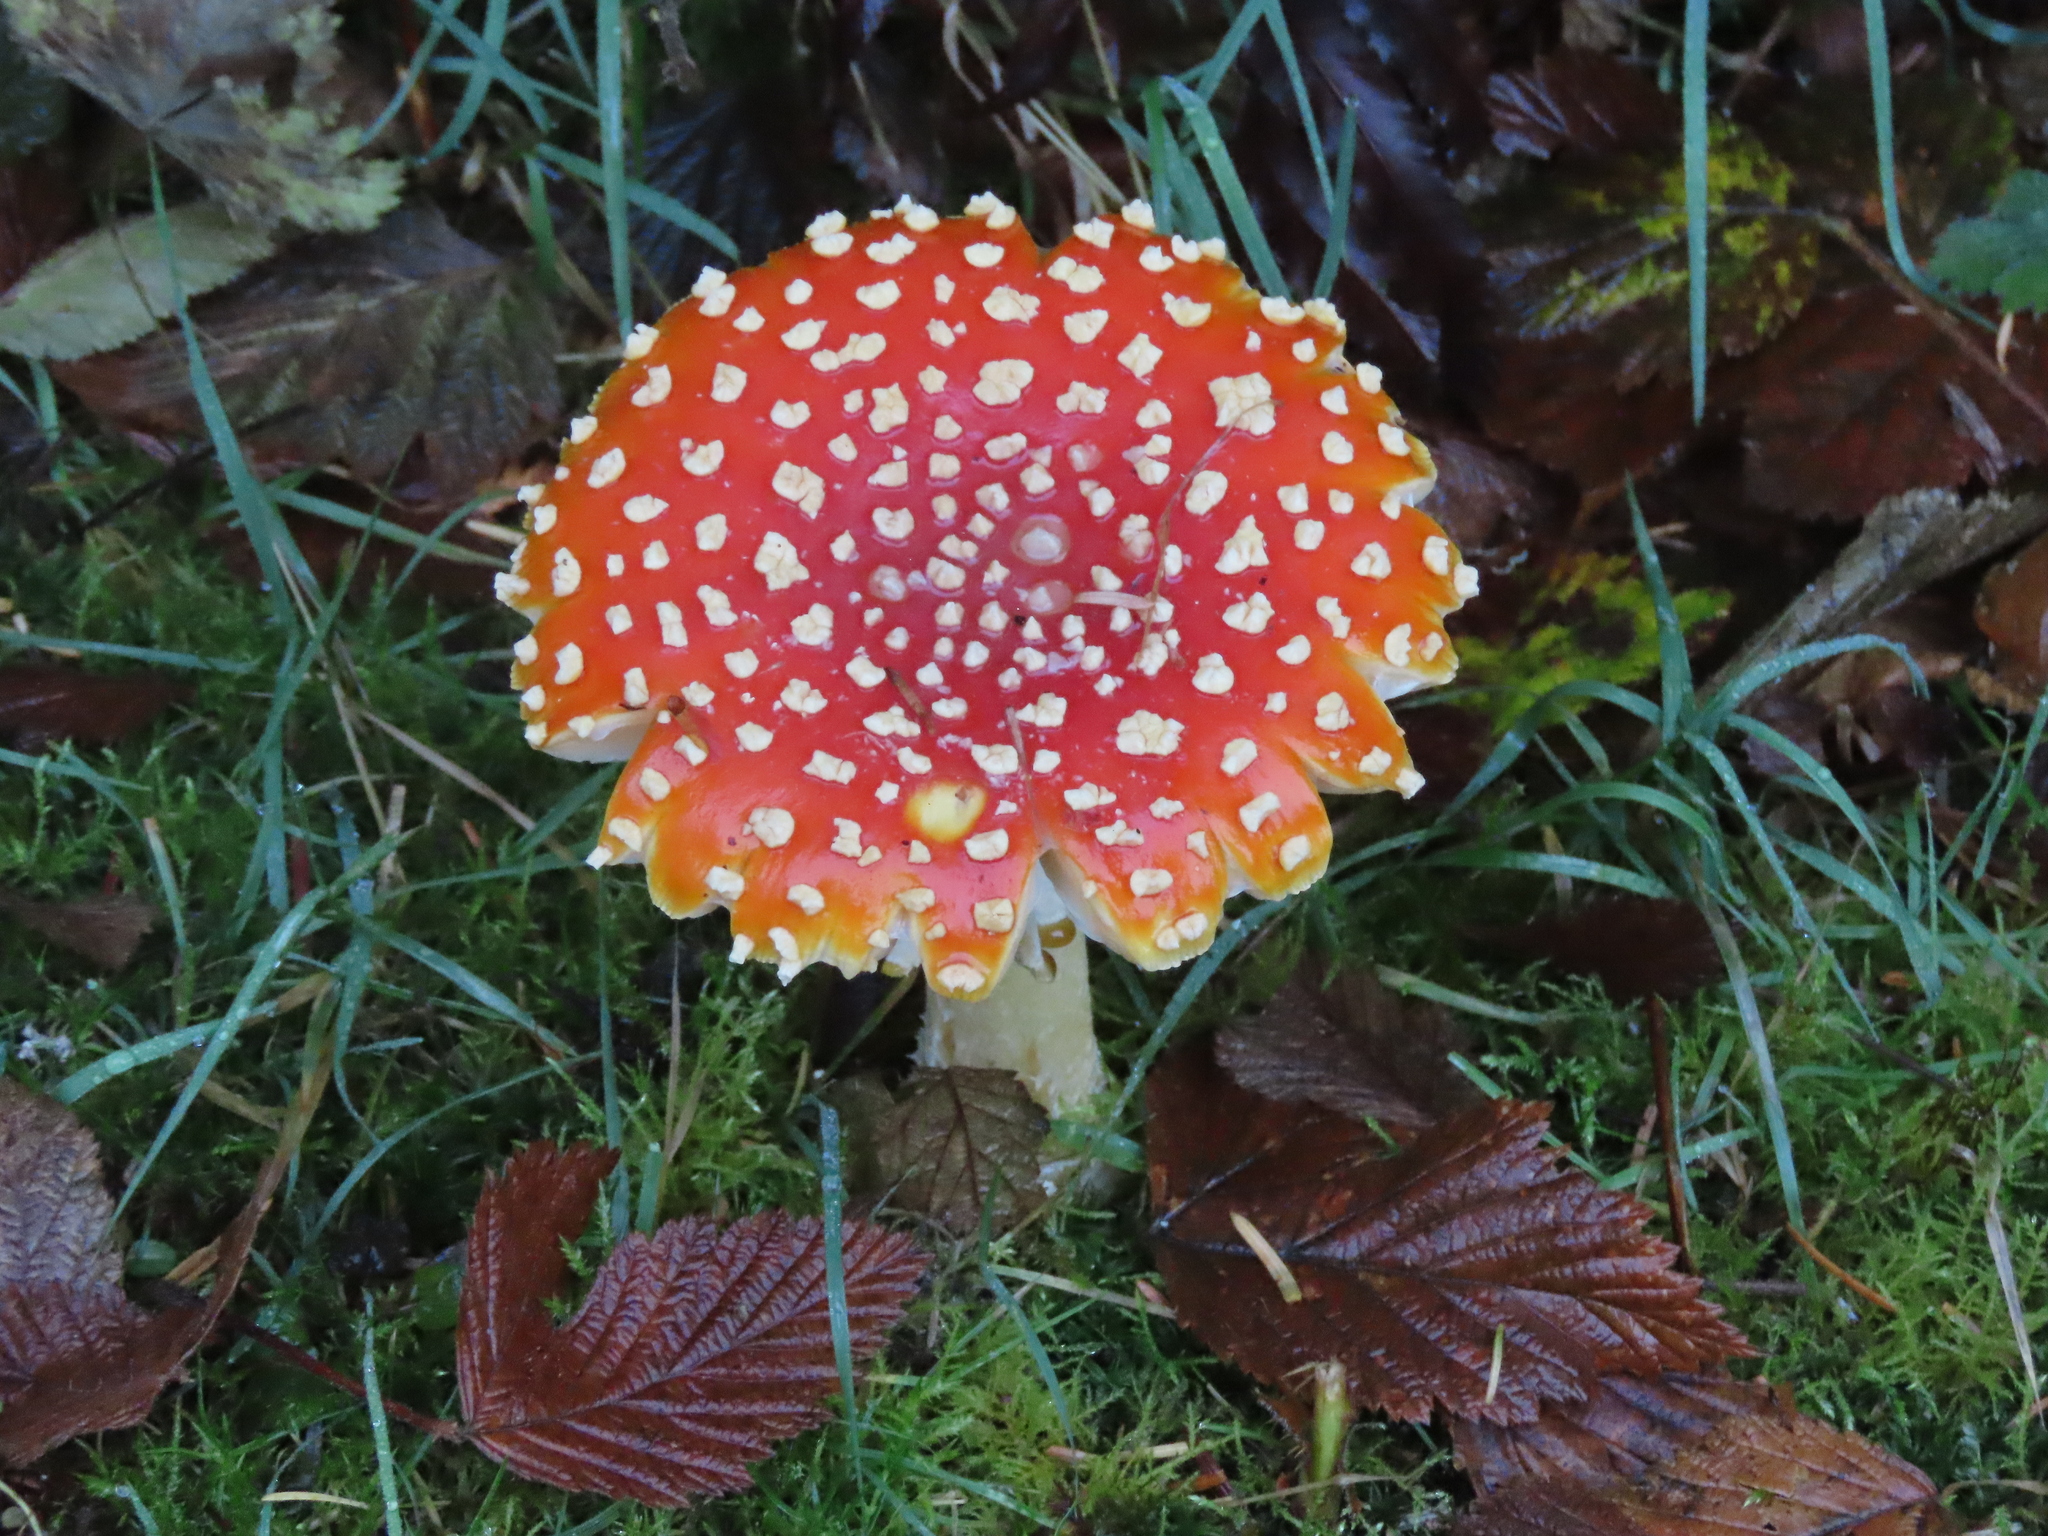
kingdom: Fungi
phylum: Basidiomycota
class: Agaricomycetes
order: Agaricales
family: Amanitaceae
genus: Amanita
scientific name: Amanita muscaria
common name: Fly agaric
